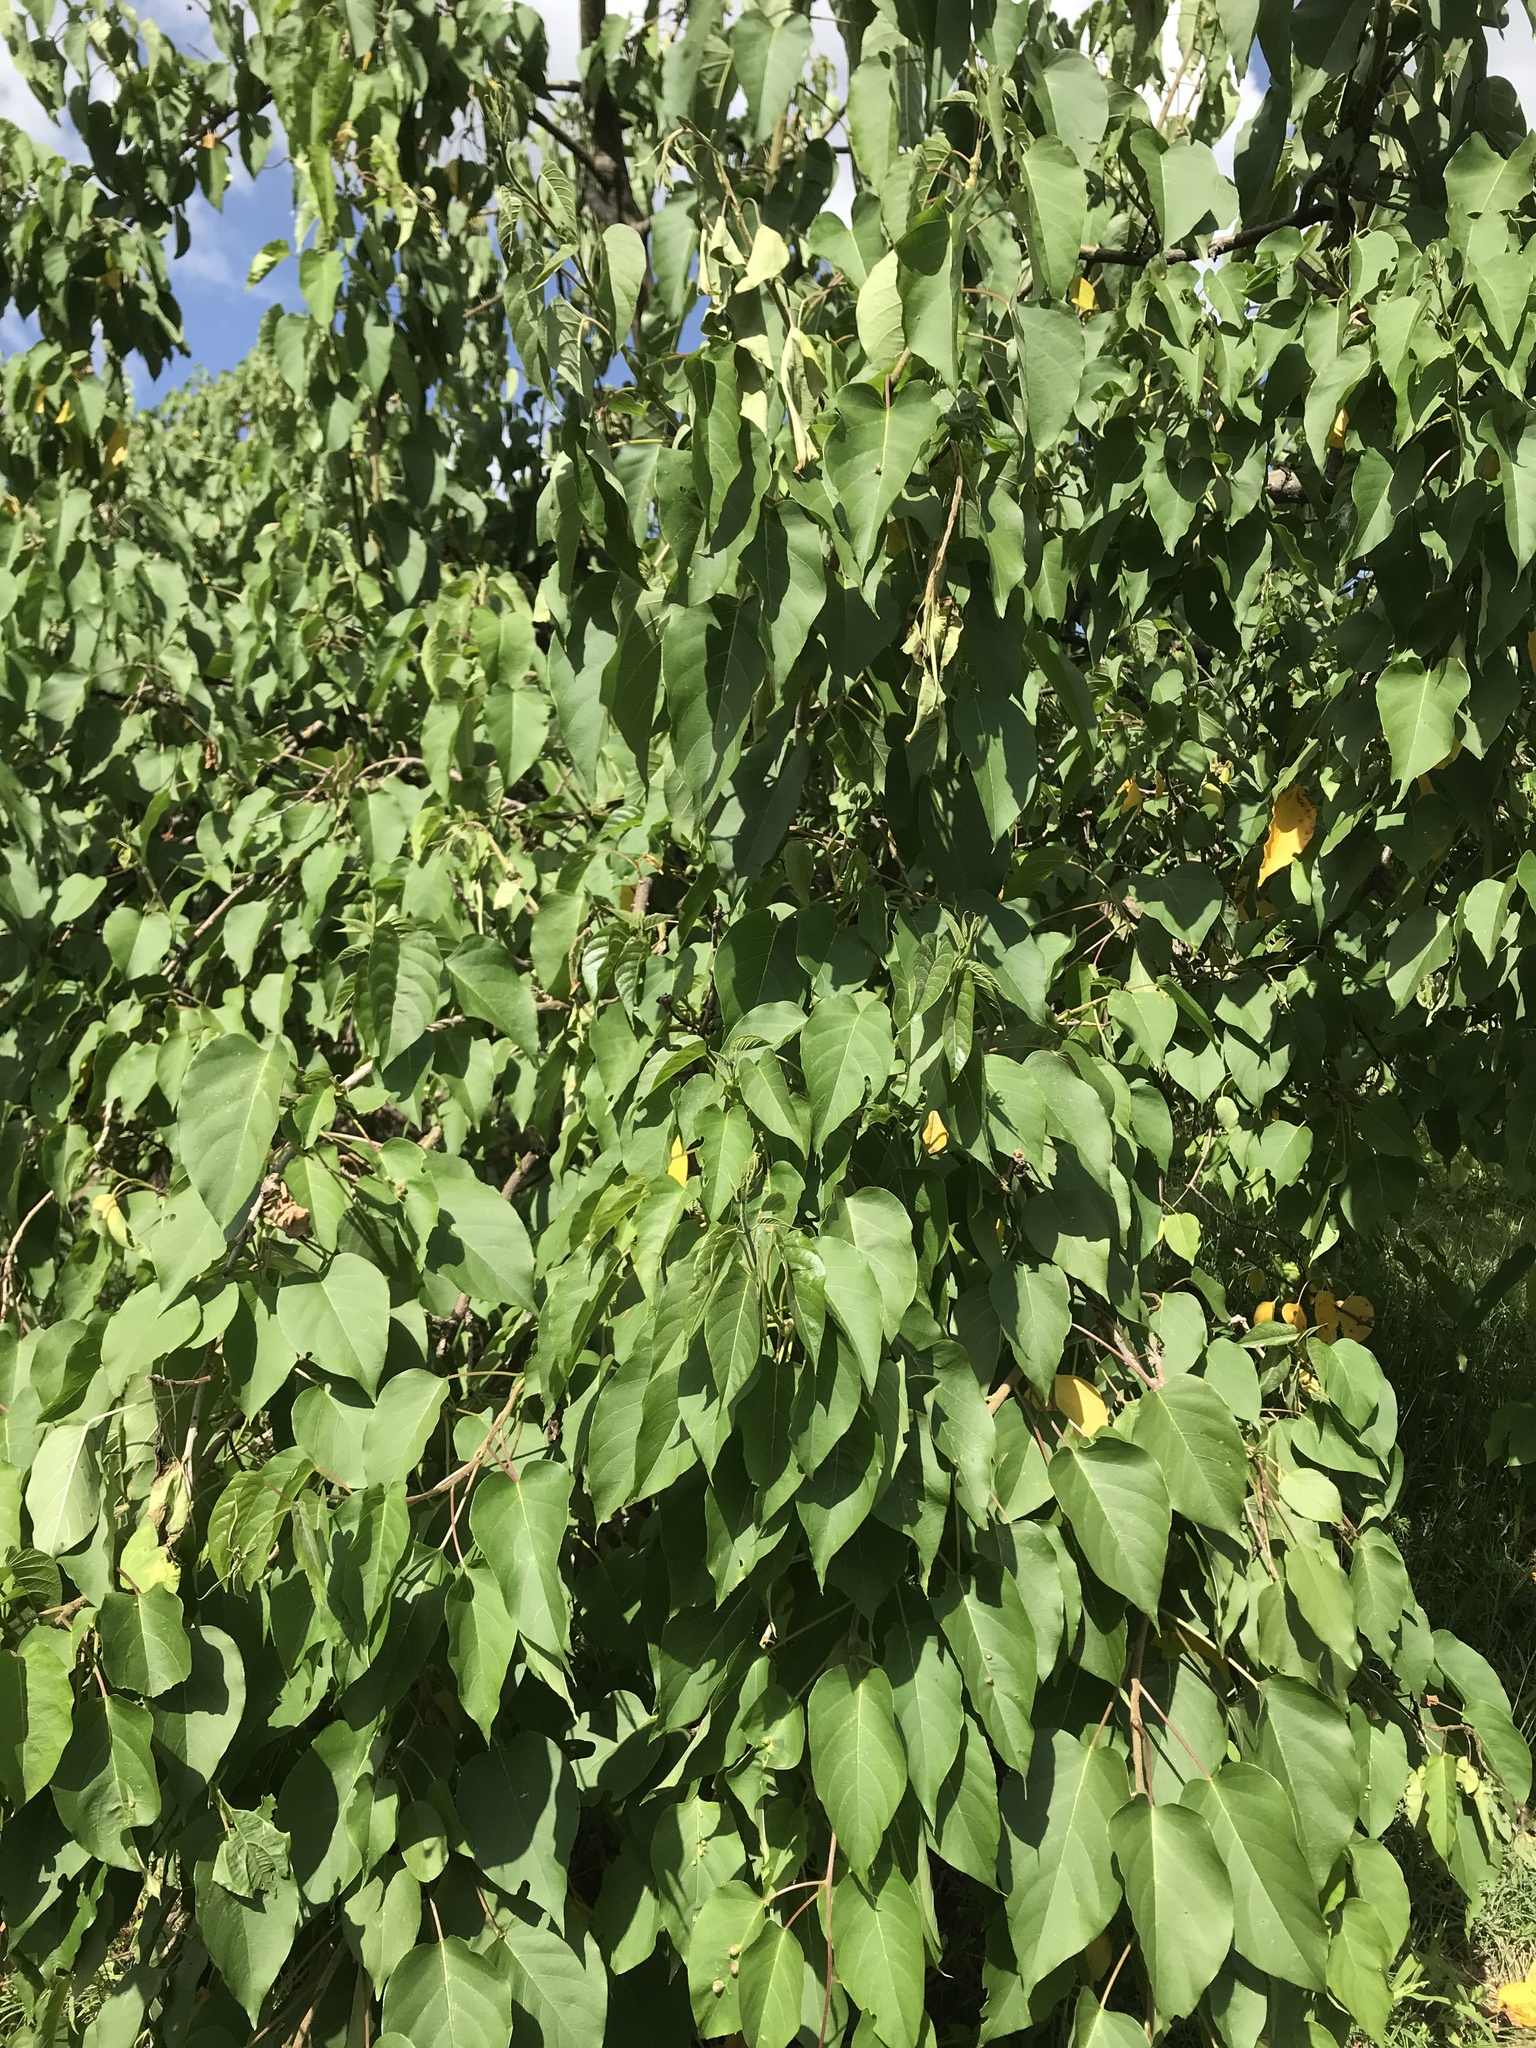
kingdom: Plantae
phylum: Tracheophyta
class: Magnoliopsida
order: Solanales
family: Convolvulaceae
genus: Ipomoea
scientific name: Ipomoea pauciflora
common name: Tree morningglory
